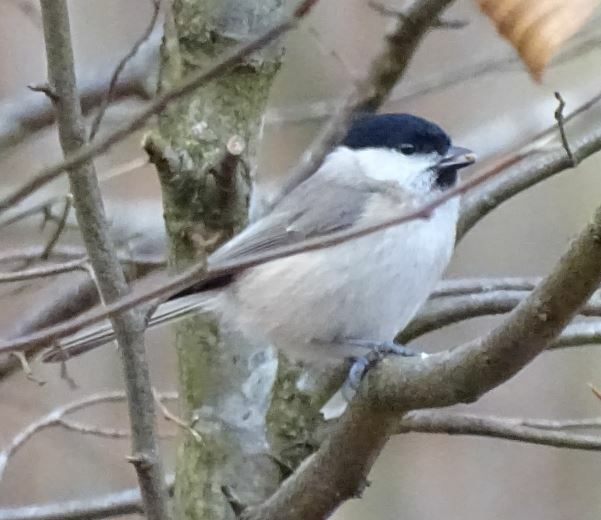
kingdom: Animalia
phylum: Chordata
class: Aves
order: Passeriformes
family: Paridae
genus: Poecile
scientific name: Poecile palustris
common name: Marsh tit
